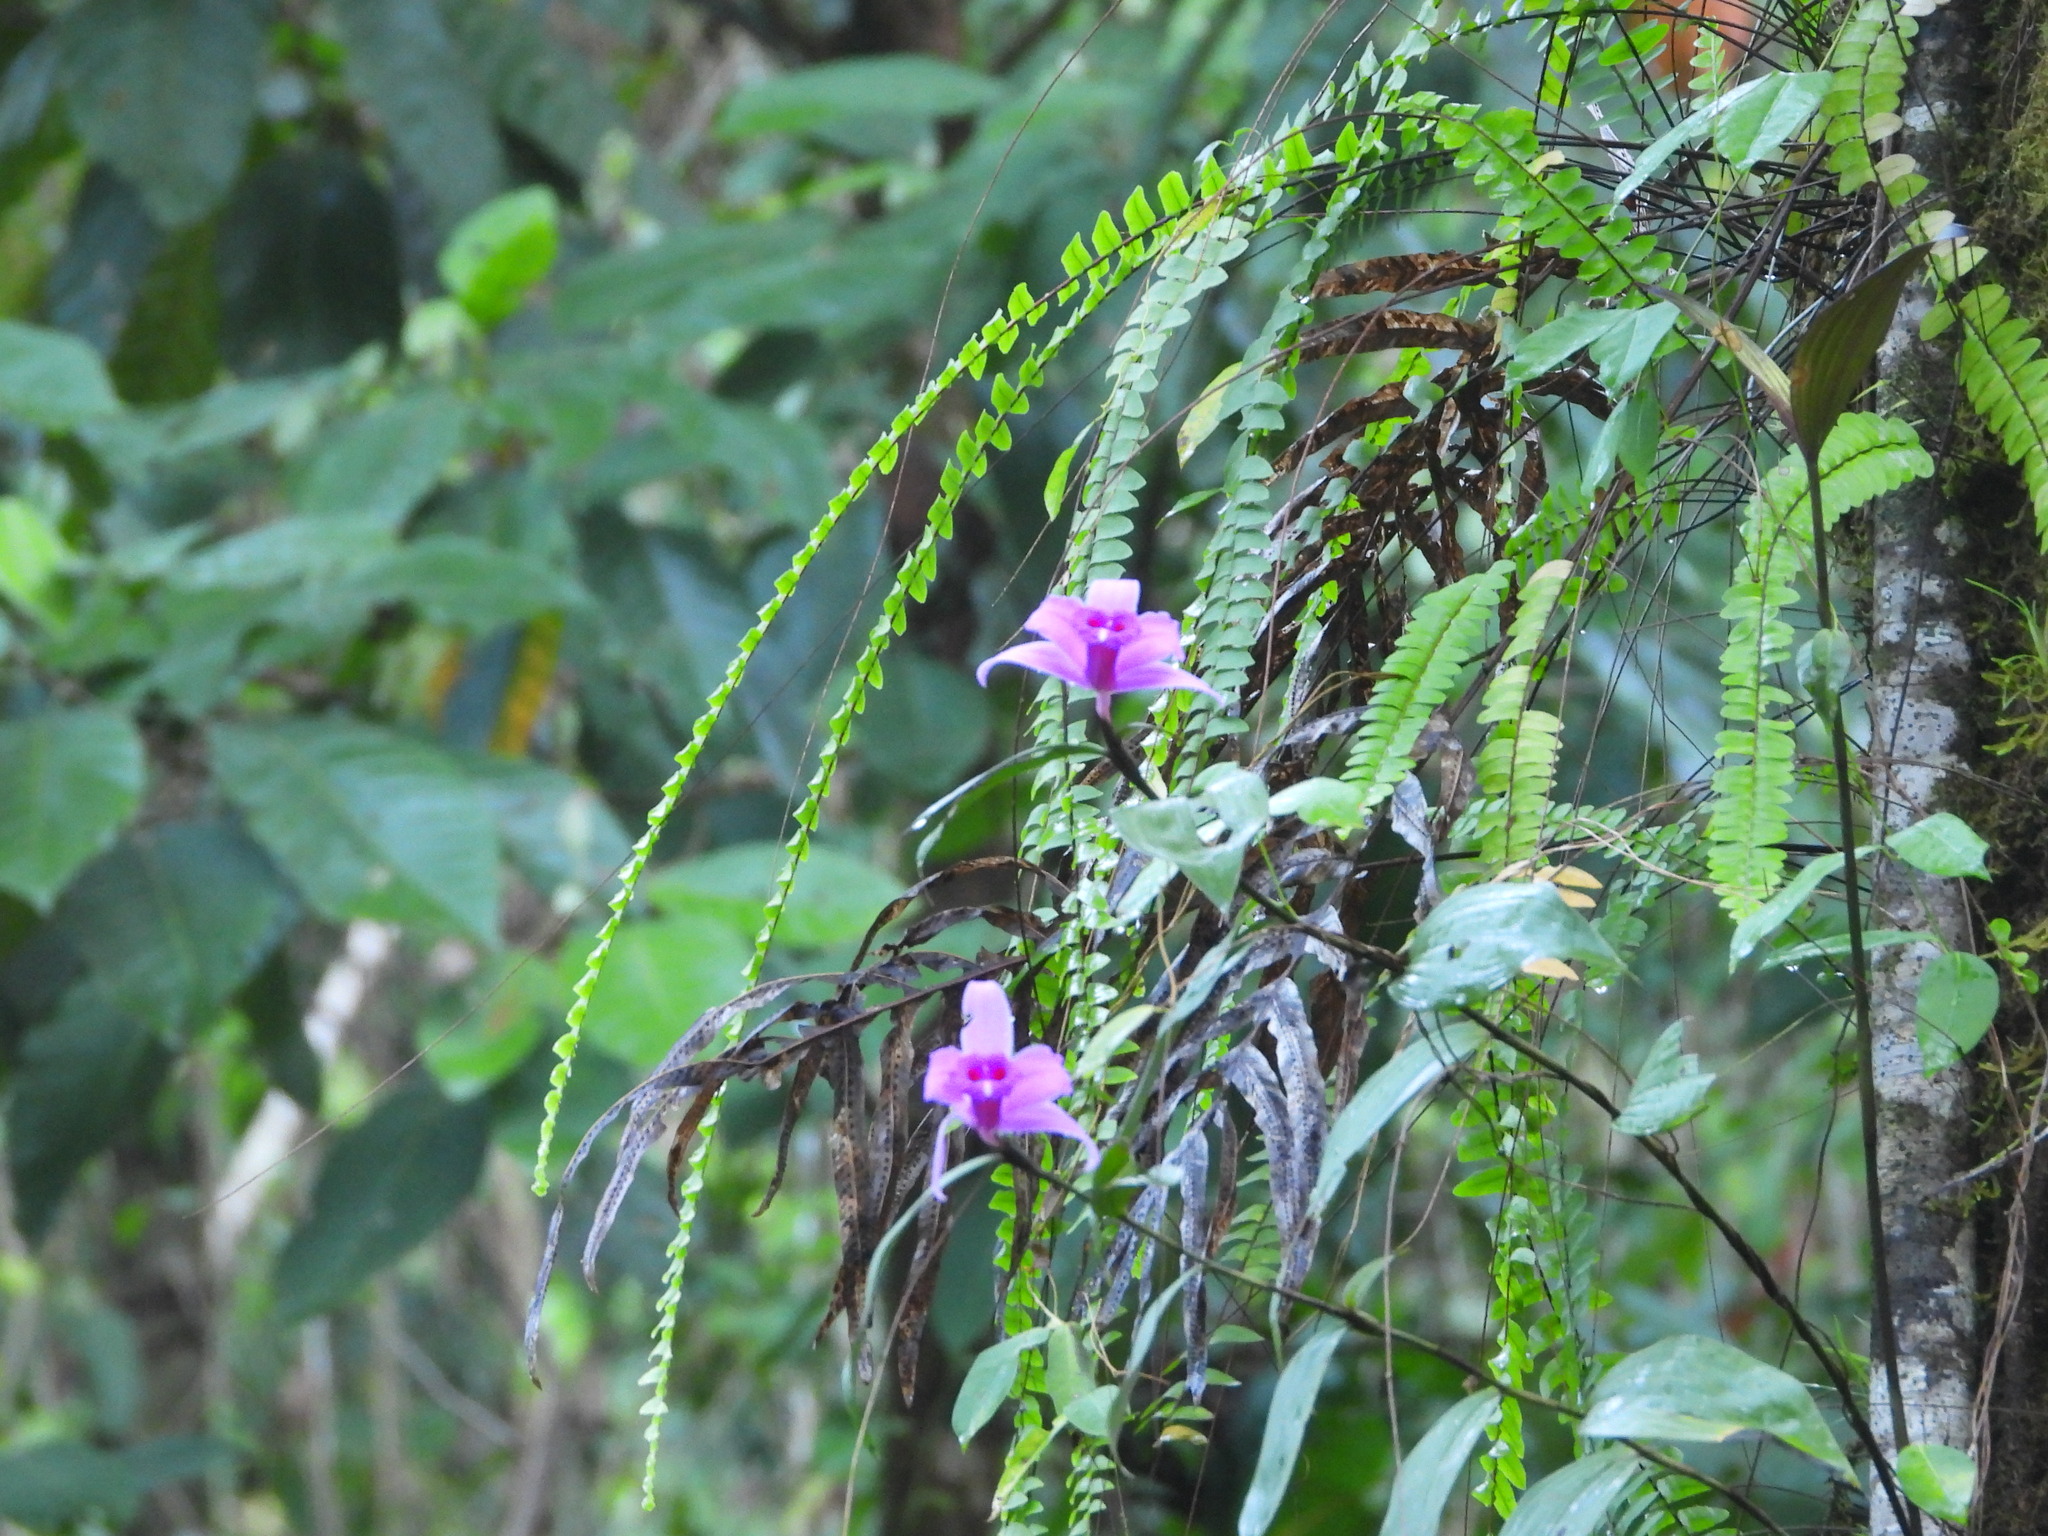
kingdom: Plantae
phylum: Tracheophyta
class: Liliopsida
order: Asparagales
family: Orchidaceae
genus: Sobralia
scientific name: Sobralia decora
